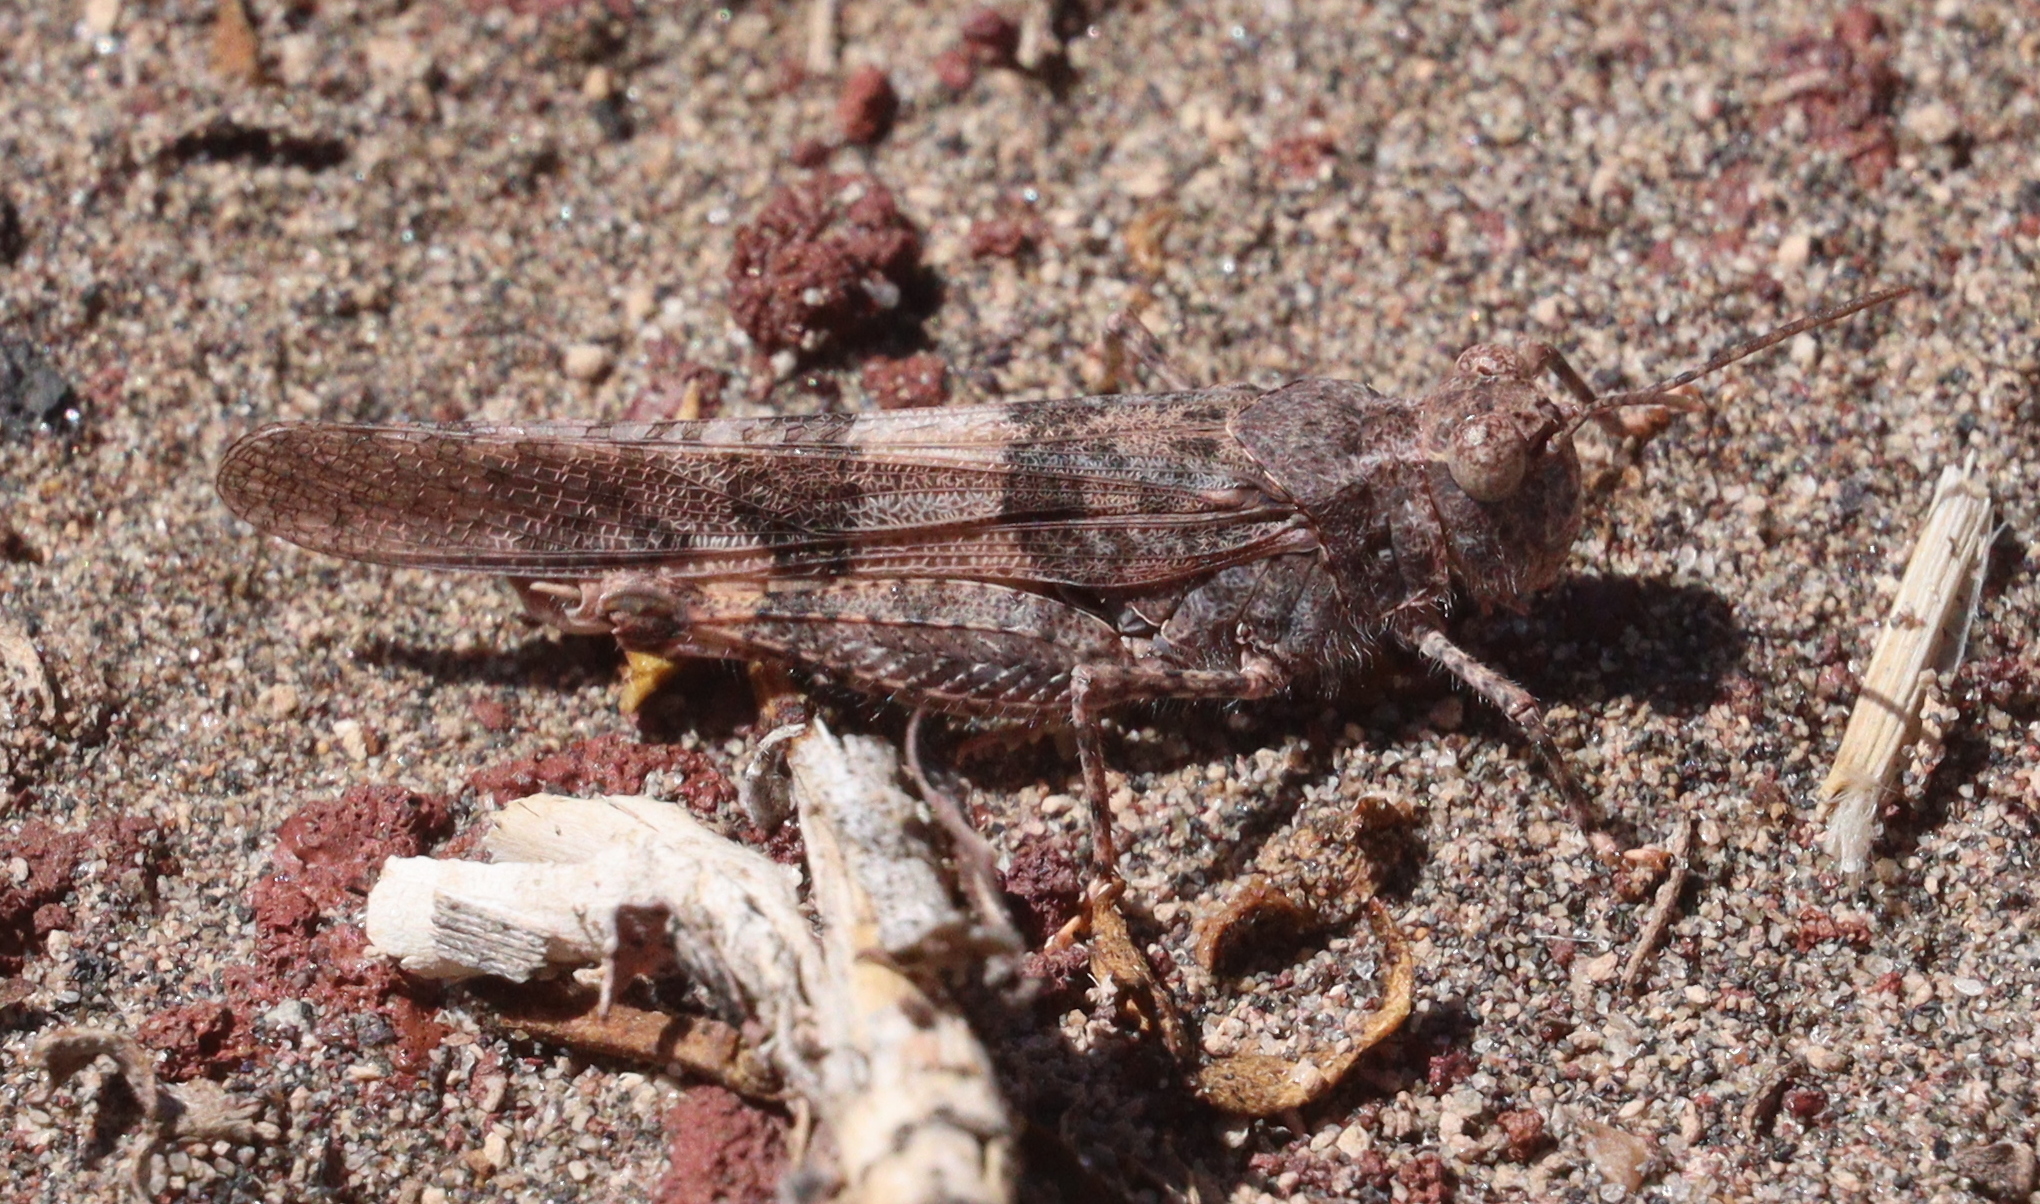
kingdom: Animalia
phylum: Arthropoda
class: Insecta
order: Orthoptera
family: Acrididae
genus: Trimerotropis
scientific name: Trimerotropis pallidipennis
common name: Pallid-winged grasshopper
